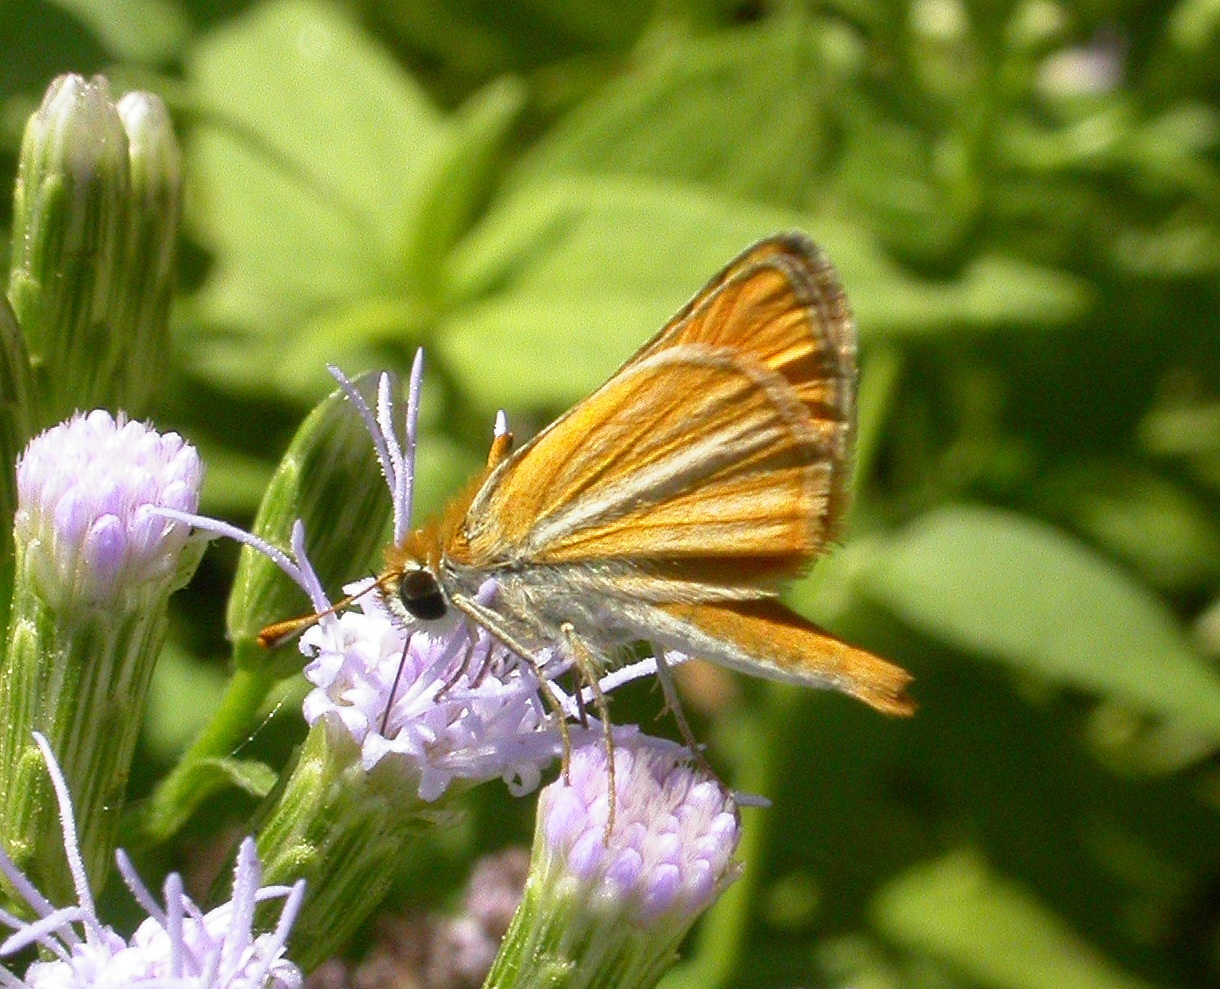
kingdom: Animalia
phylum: Arthropoda
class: Insecta
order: Lepidoptera
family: Hesperiidae
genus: Copaeodes
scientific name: Copaeodes minima
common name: Southern skipperling
